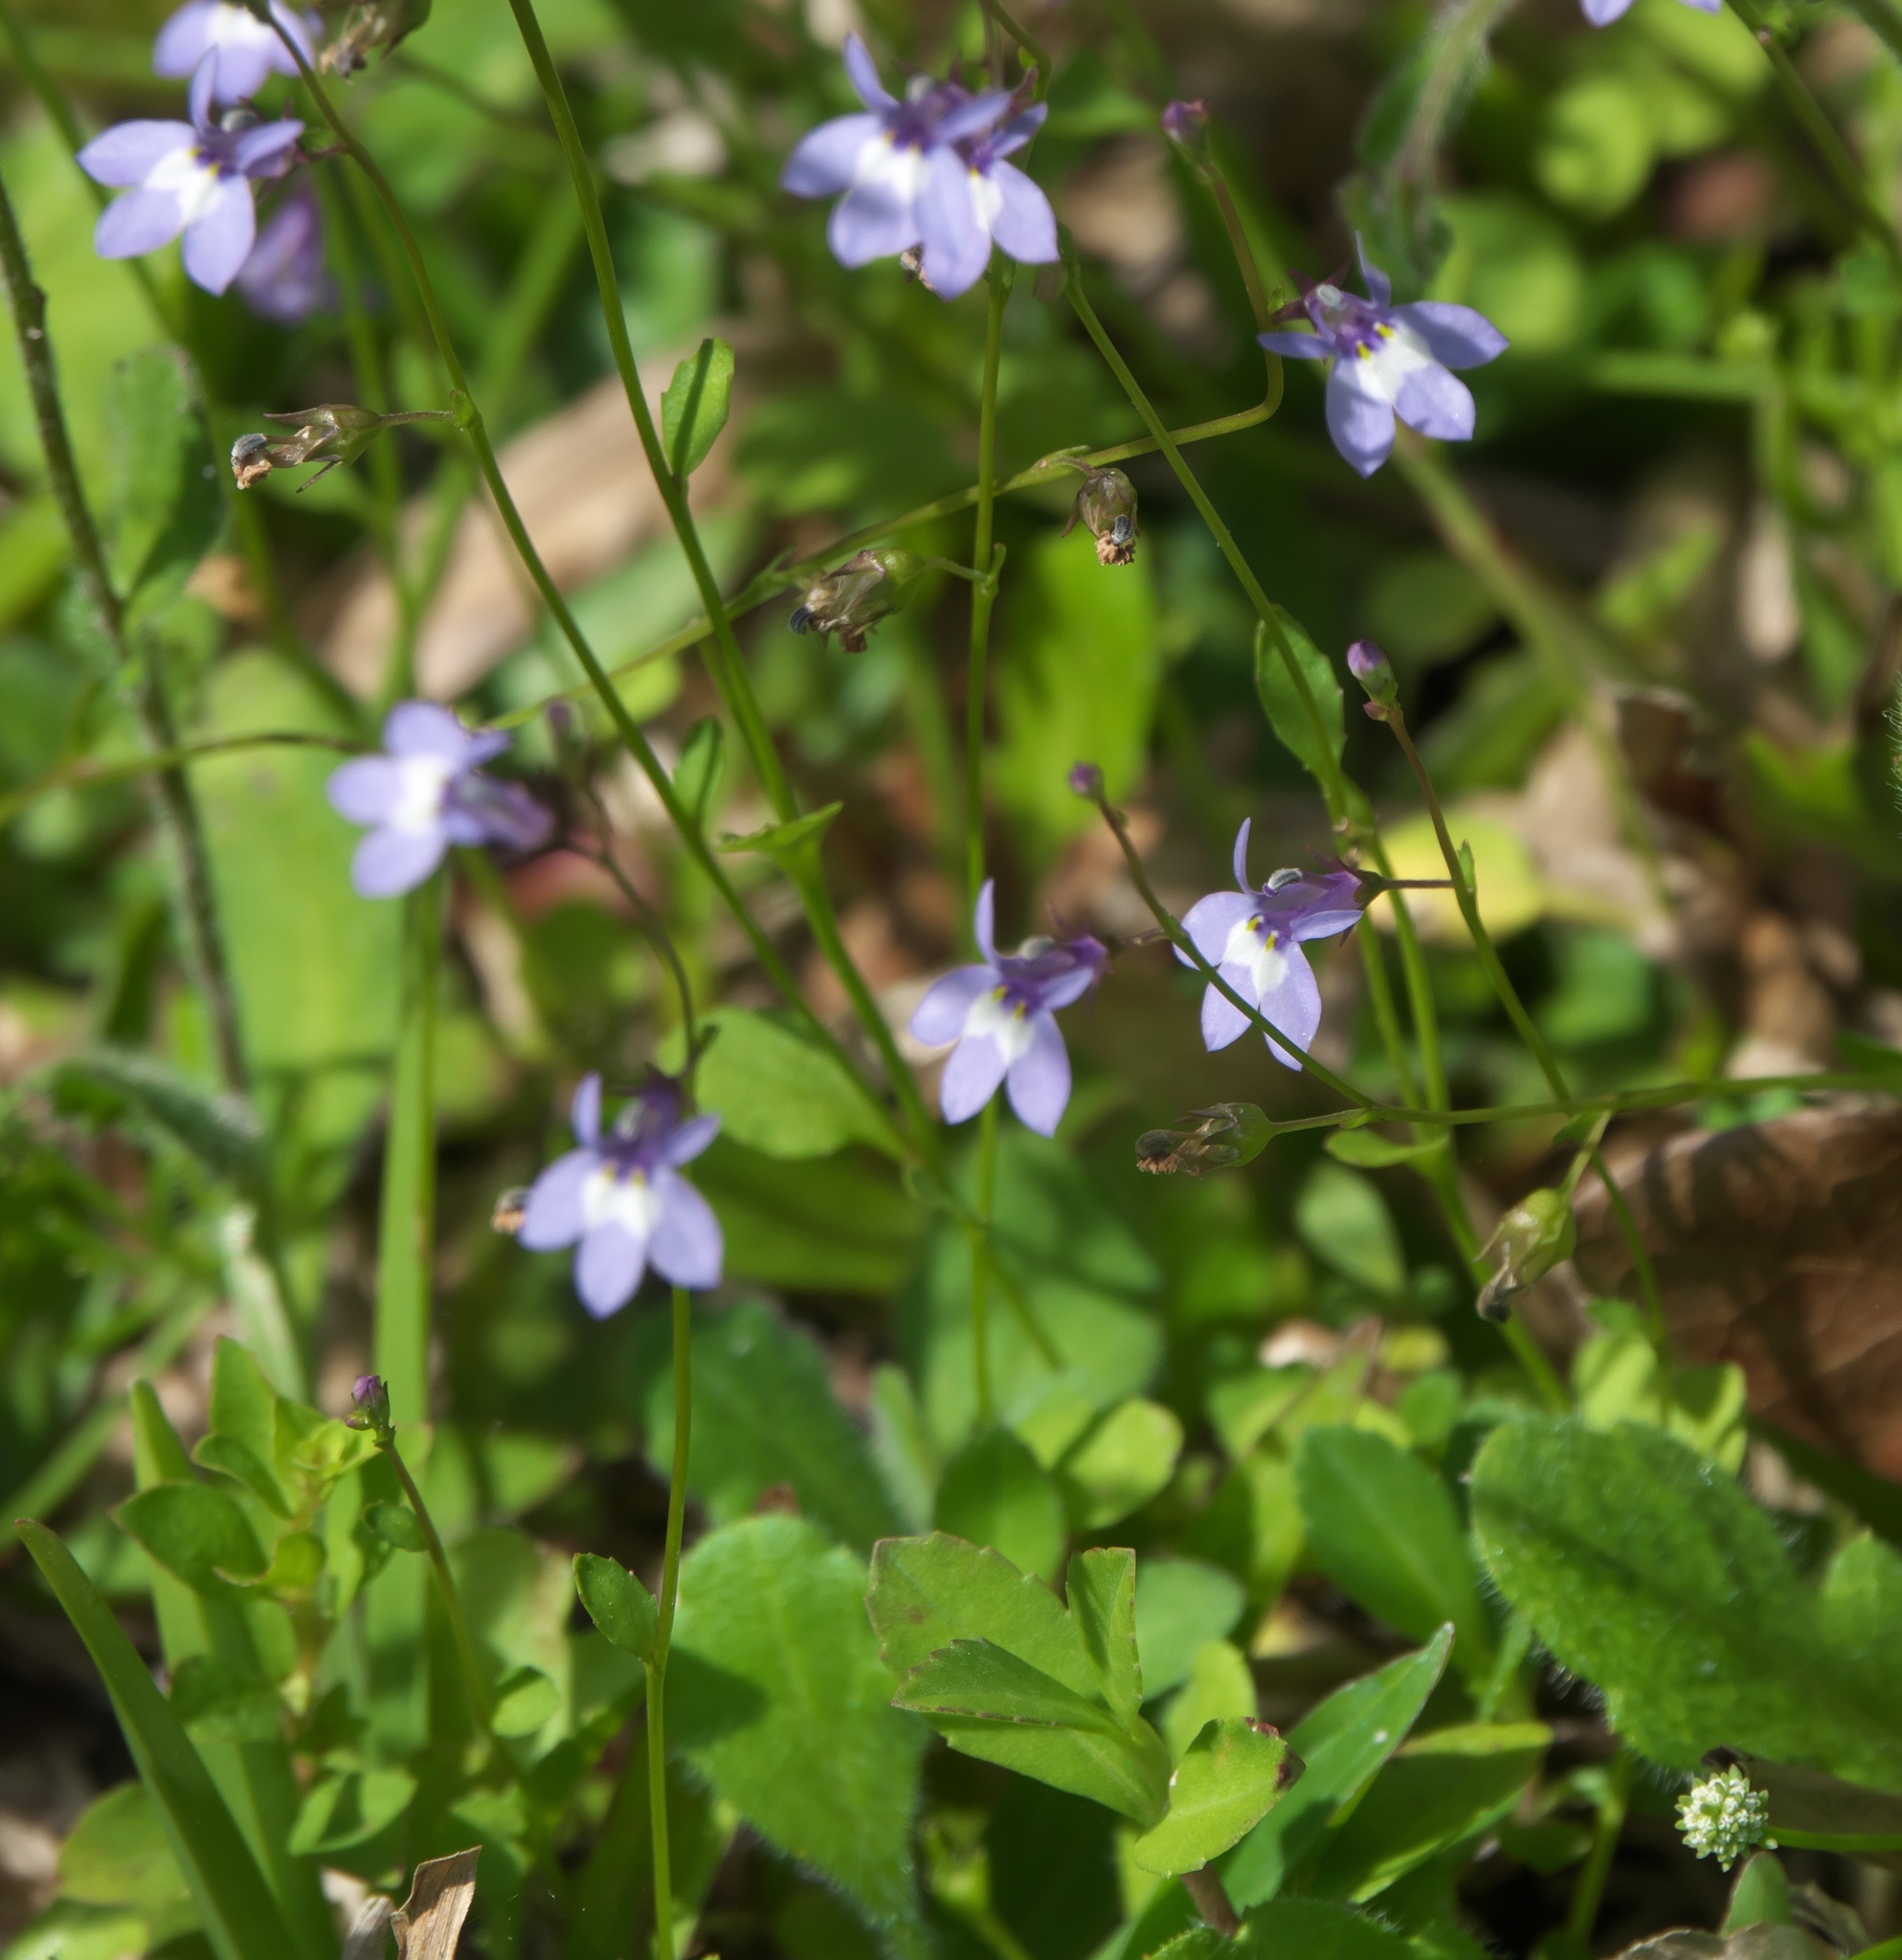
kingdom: Plantae
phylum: Tracheophyta
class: Magnoliopsida
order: Asterales
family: Campanulaceae
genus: Lobelia
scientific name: Lobelia feayana
